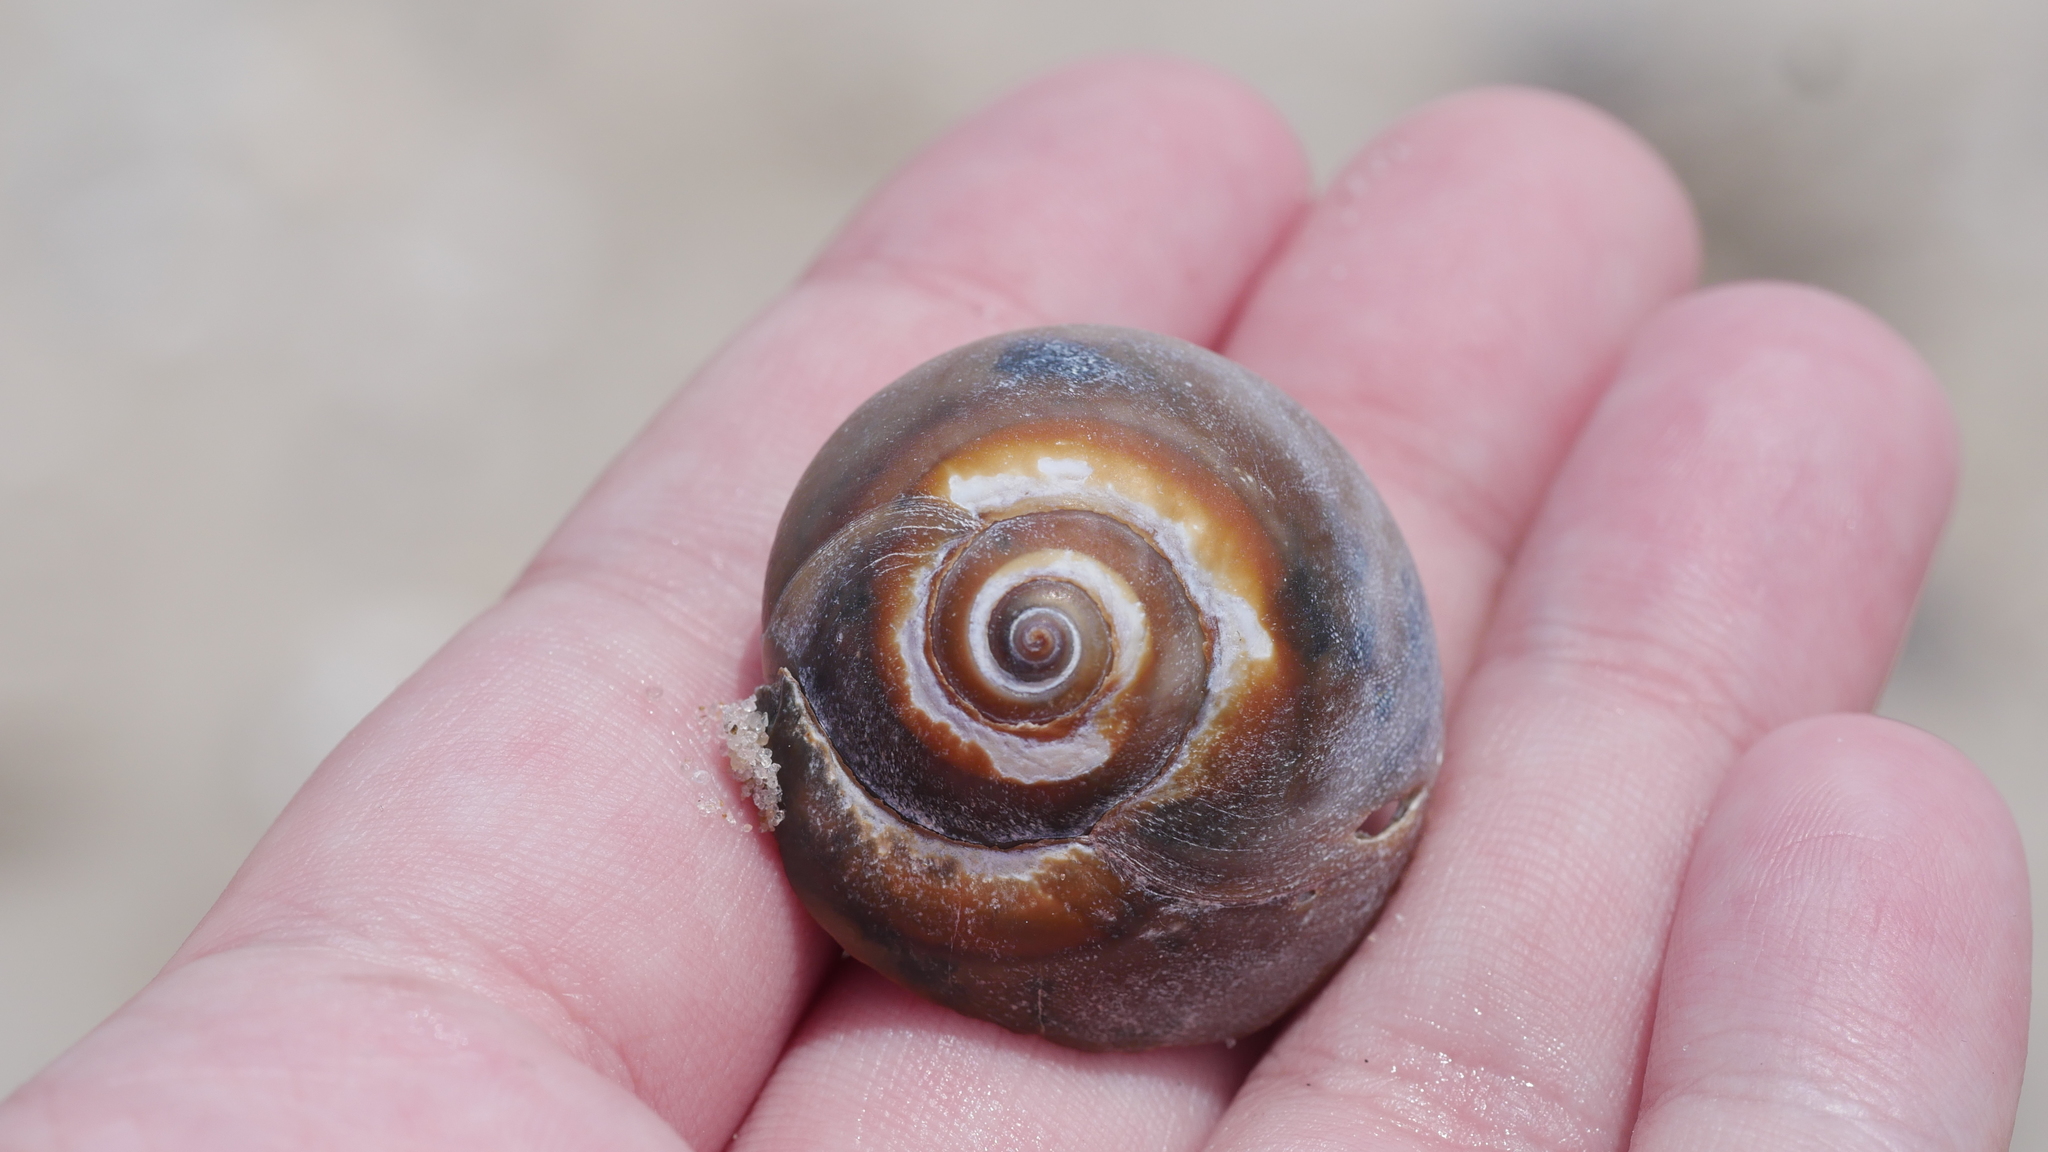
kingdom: Animalia
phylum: Mollusca
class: Gastropoda
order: Littorinimorpha
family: Naticidae
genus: Neverita
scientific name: Neverita duplicata
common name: Lobed moonsnail
